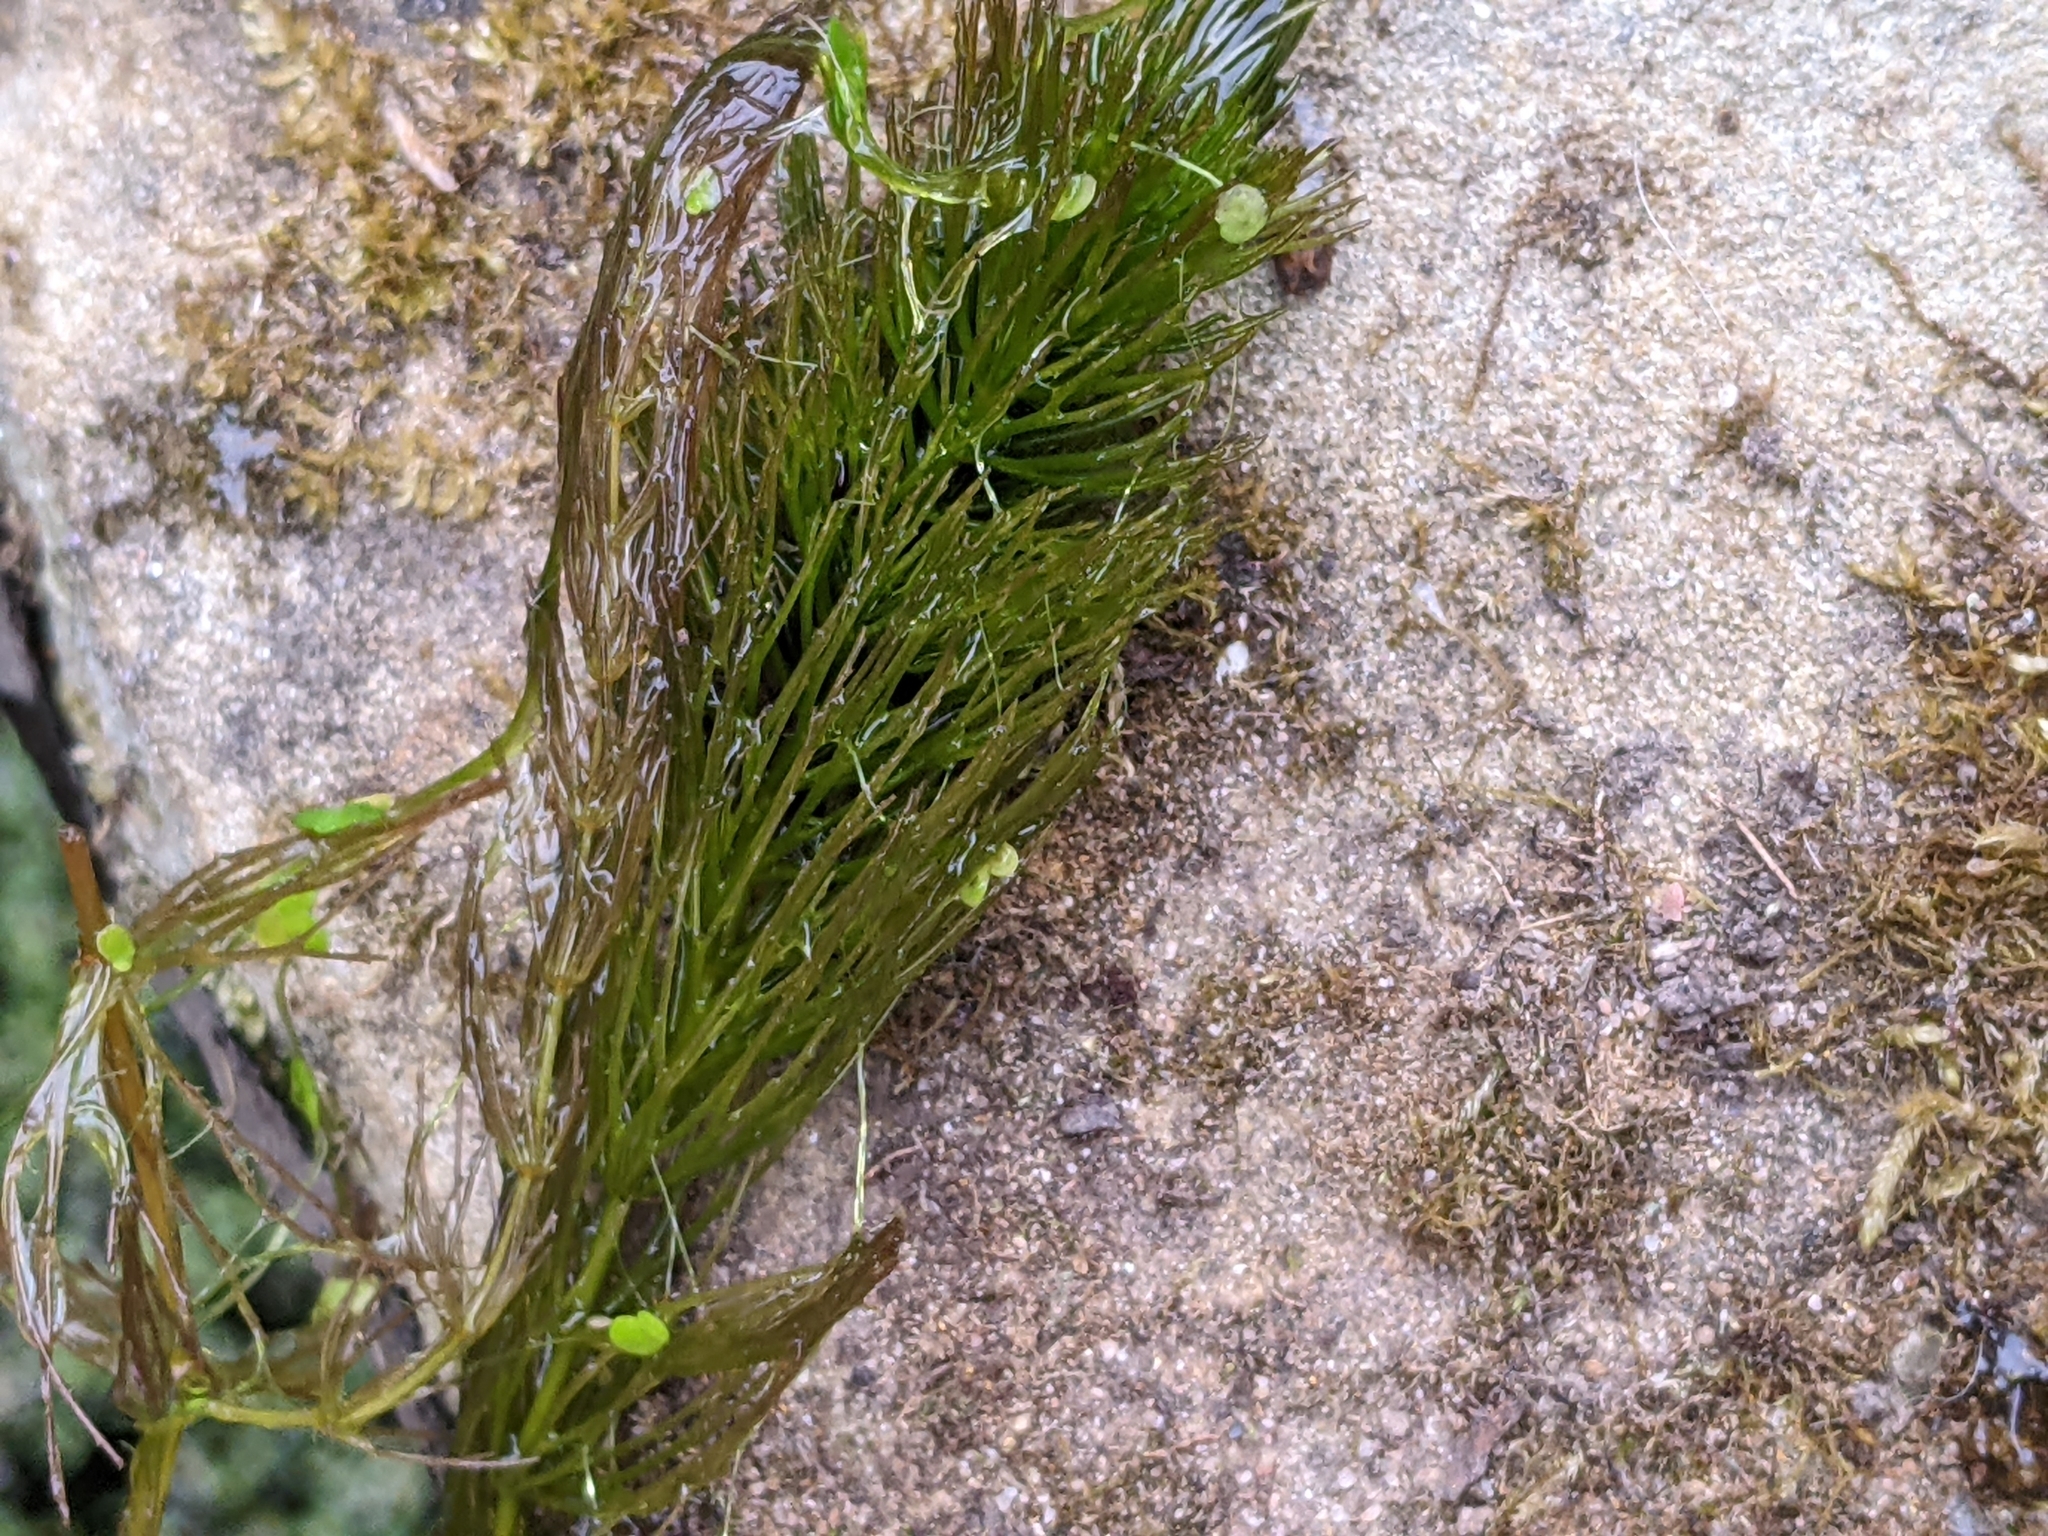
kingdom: Plantae
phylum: Tracheophyta
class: Magnoliopsida
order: Ceratophyllales
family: Ceratophyllaceae
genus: Ceratophyllum
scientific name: Ceratophyllum demersum
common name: Rigid hornwort
